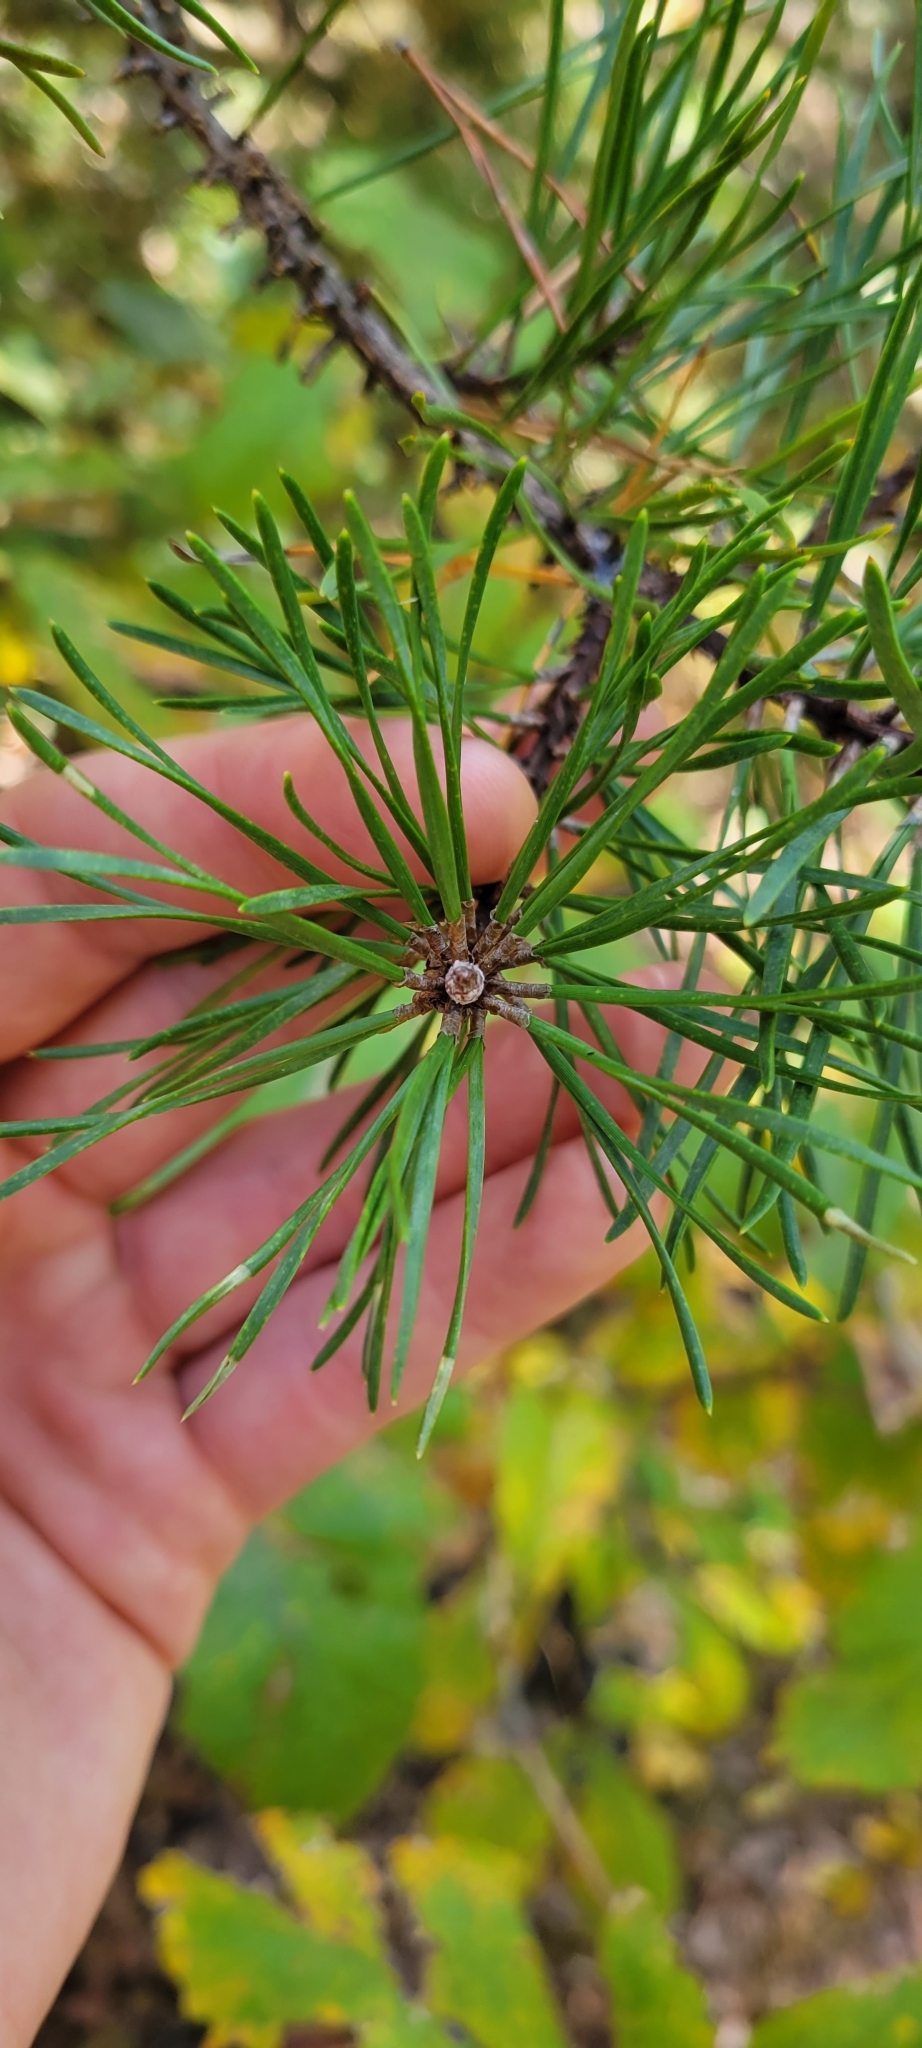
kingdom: Plantae
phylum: Tracheophyta
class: Pinopsida
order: Pinales
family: Pinaceae
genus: Pinus
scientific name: Pinus virginiana
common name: Scrub pine
